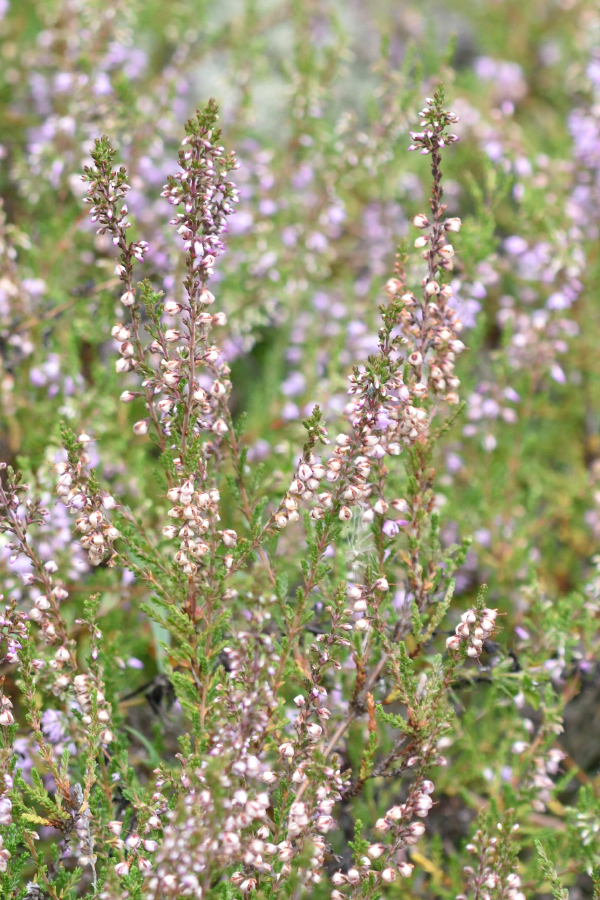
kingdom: Plantae
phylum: Tracheophyta
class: Magnoliopsida
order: Ericales
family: Ericaceae
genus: Calluna
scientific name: Calluna vulgaris
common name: Heather
